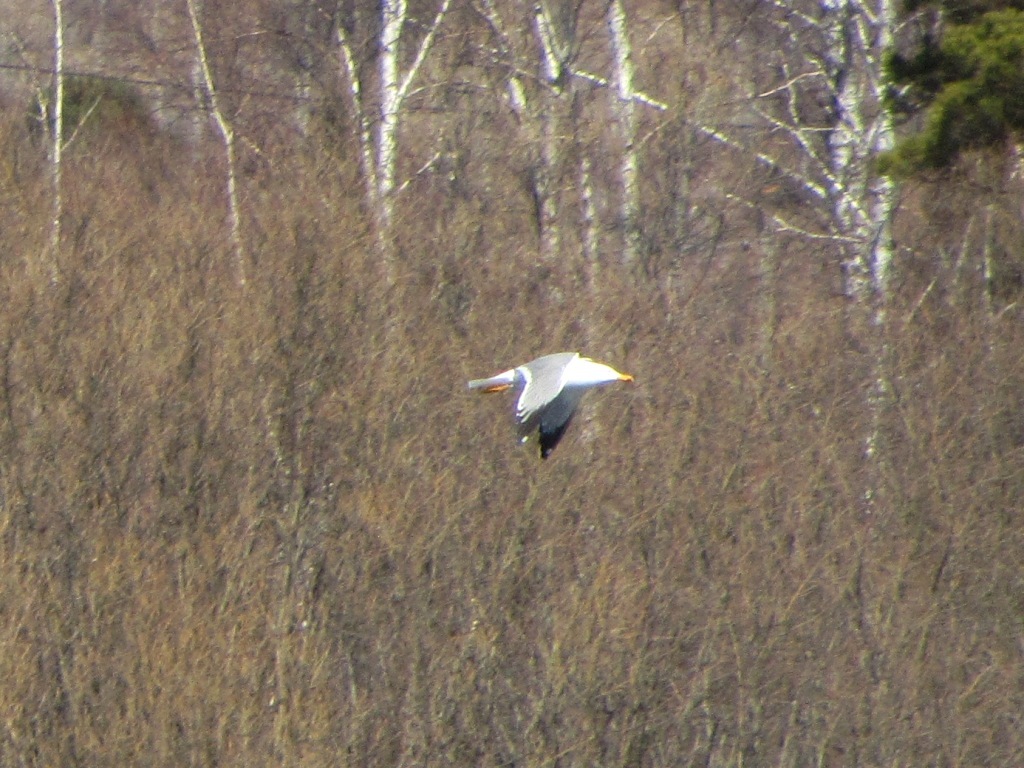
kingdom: Animalia
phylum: Chordata
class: Aves
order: Charadriiformes
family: Laridae
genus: Larus
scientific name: Larus fuscus
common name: Lesser black-backed gull
